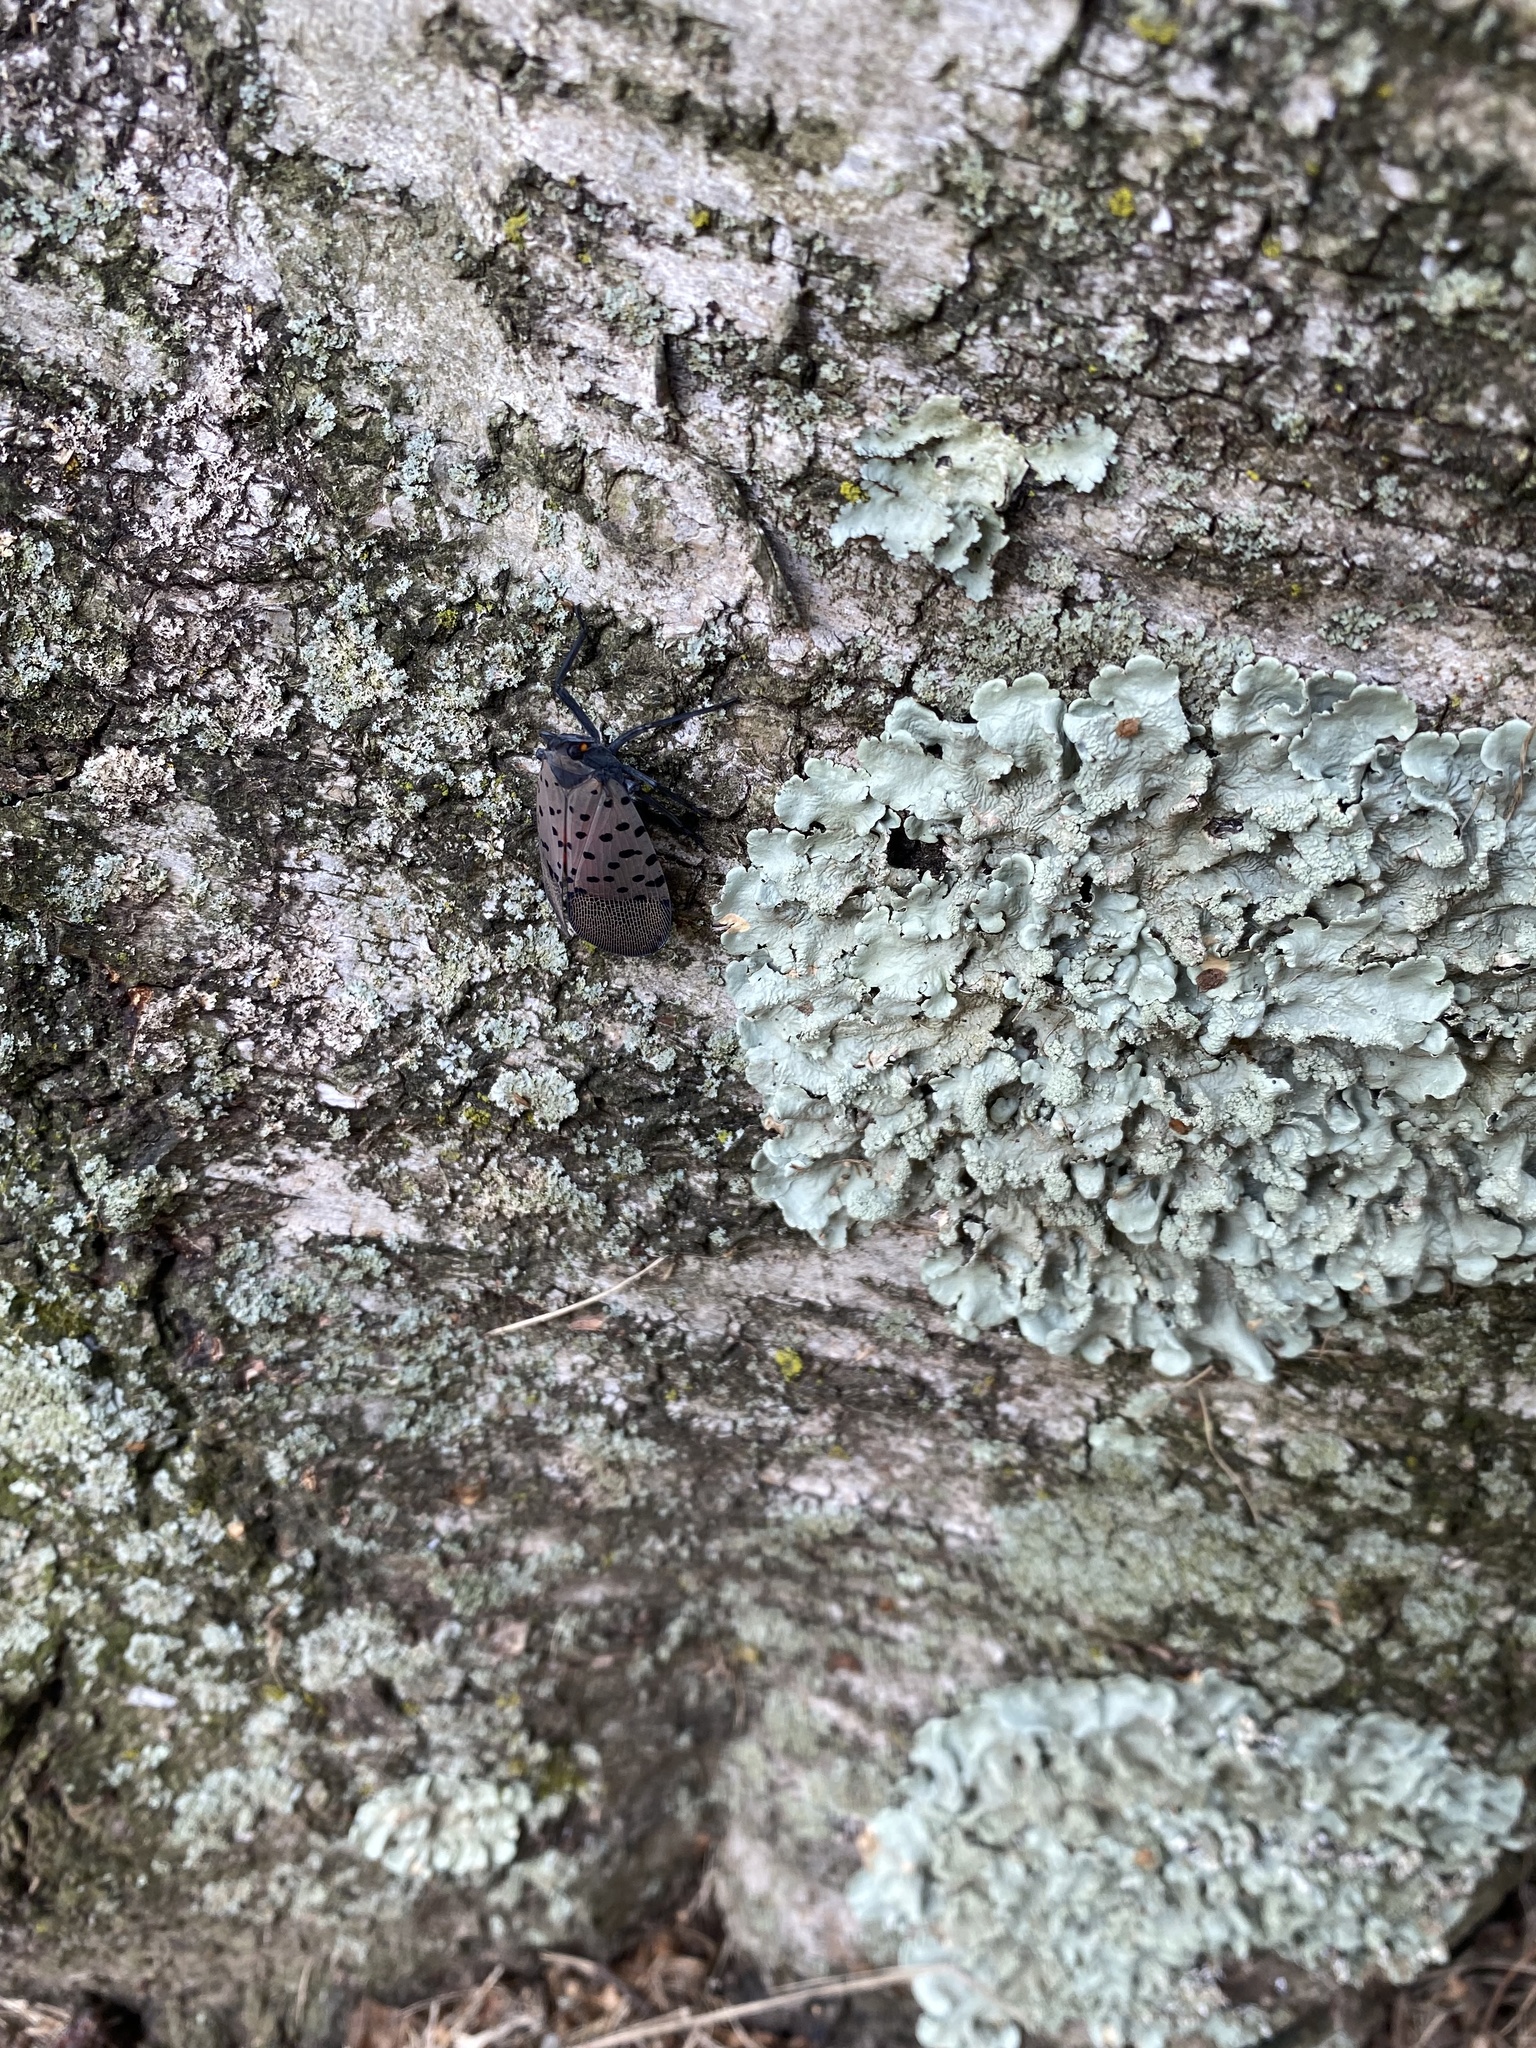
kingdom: Animalia
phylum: Arthropoda
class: Insecta
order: Hemiptera
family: Fulgoridae
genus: Lycorma
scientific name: Lycorma delicatula
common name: Spotted lanternfly
